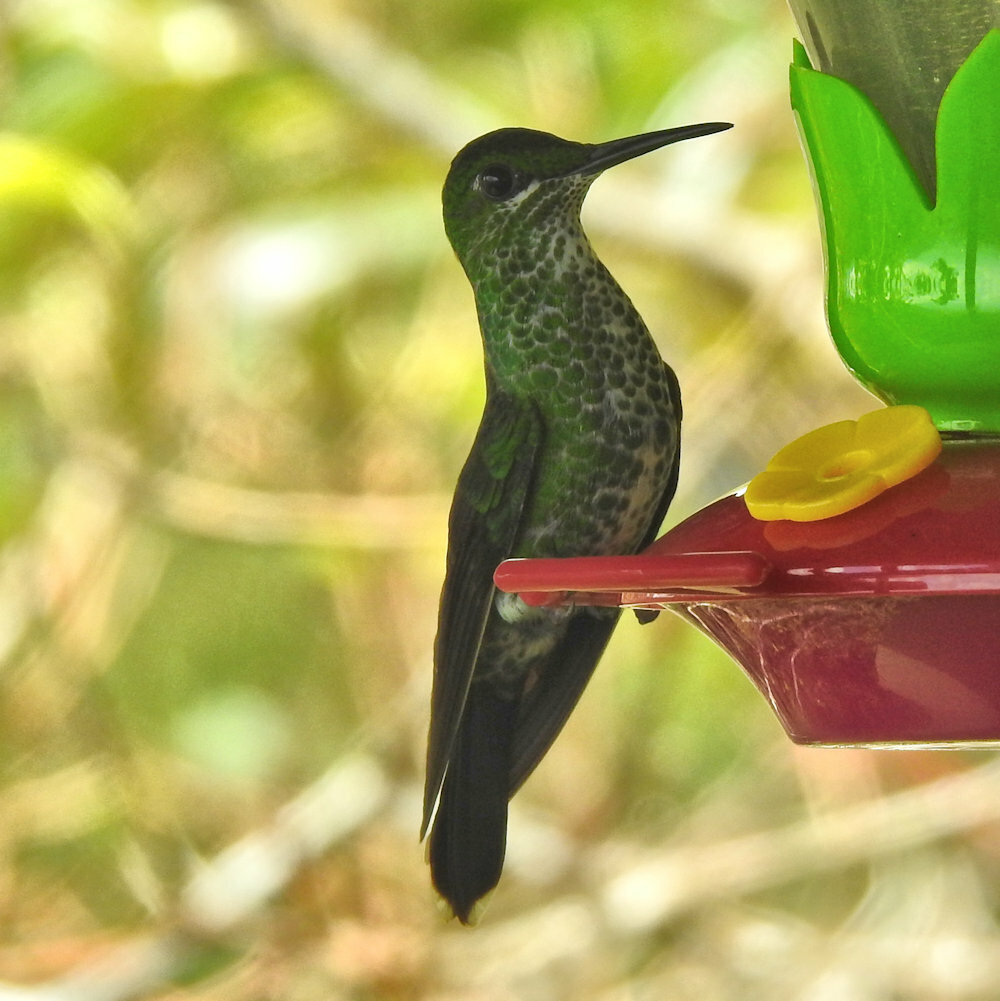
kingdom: Animalia
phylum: Chordata
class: Aves
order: Apodiformes
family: Trochilidae
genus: Heliodoxa
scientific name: Heliodoxa jacula
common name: Green-crowned brilliant
